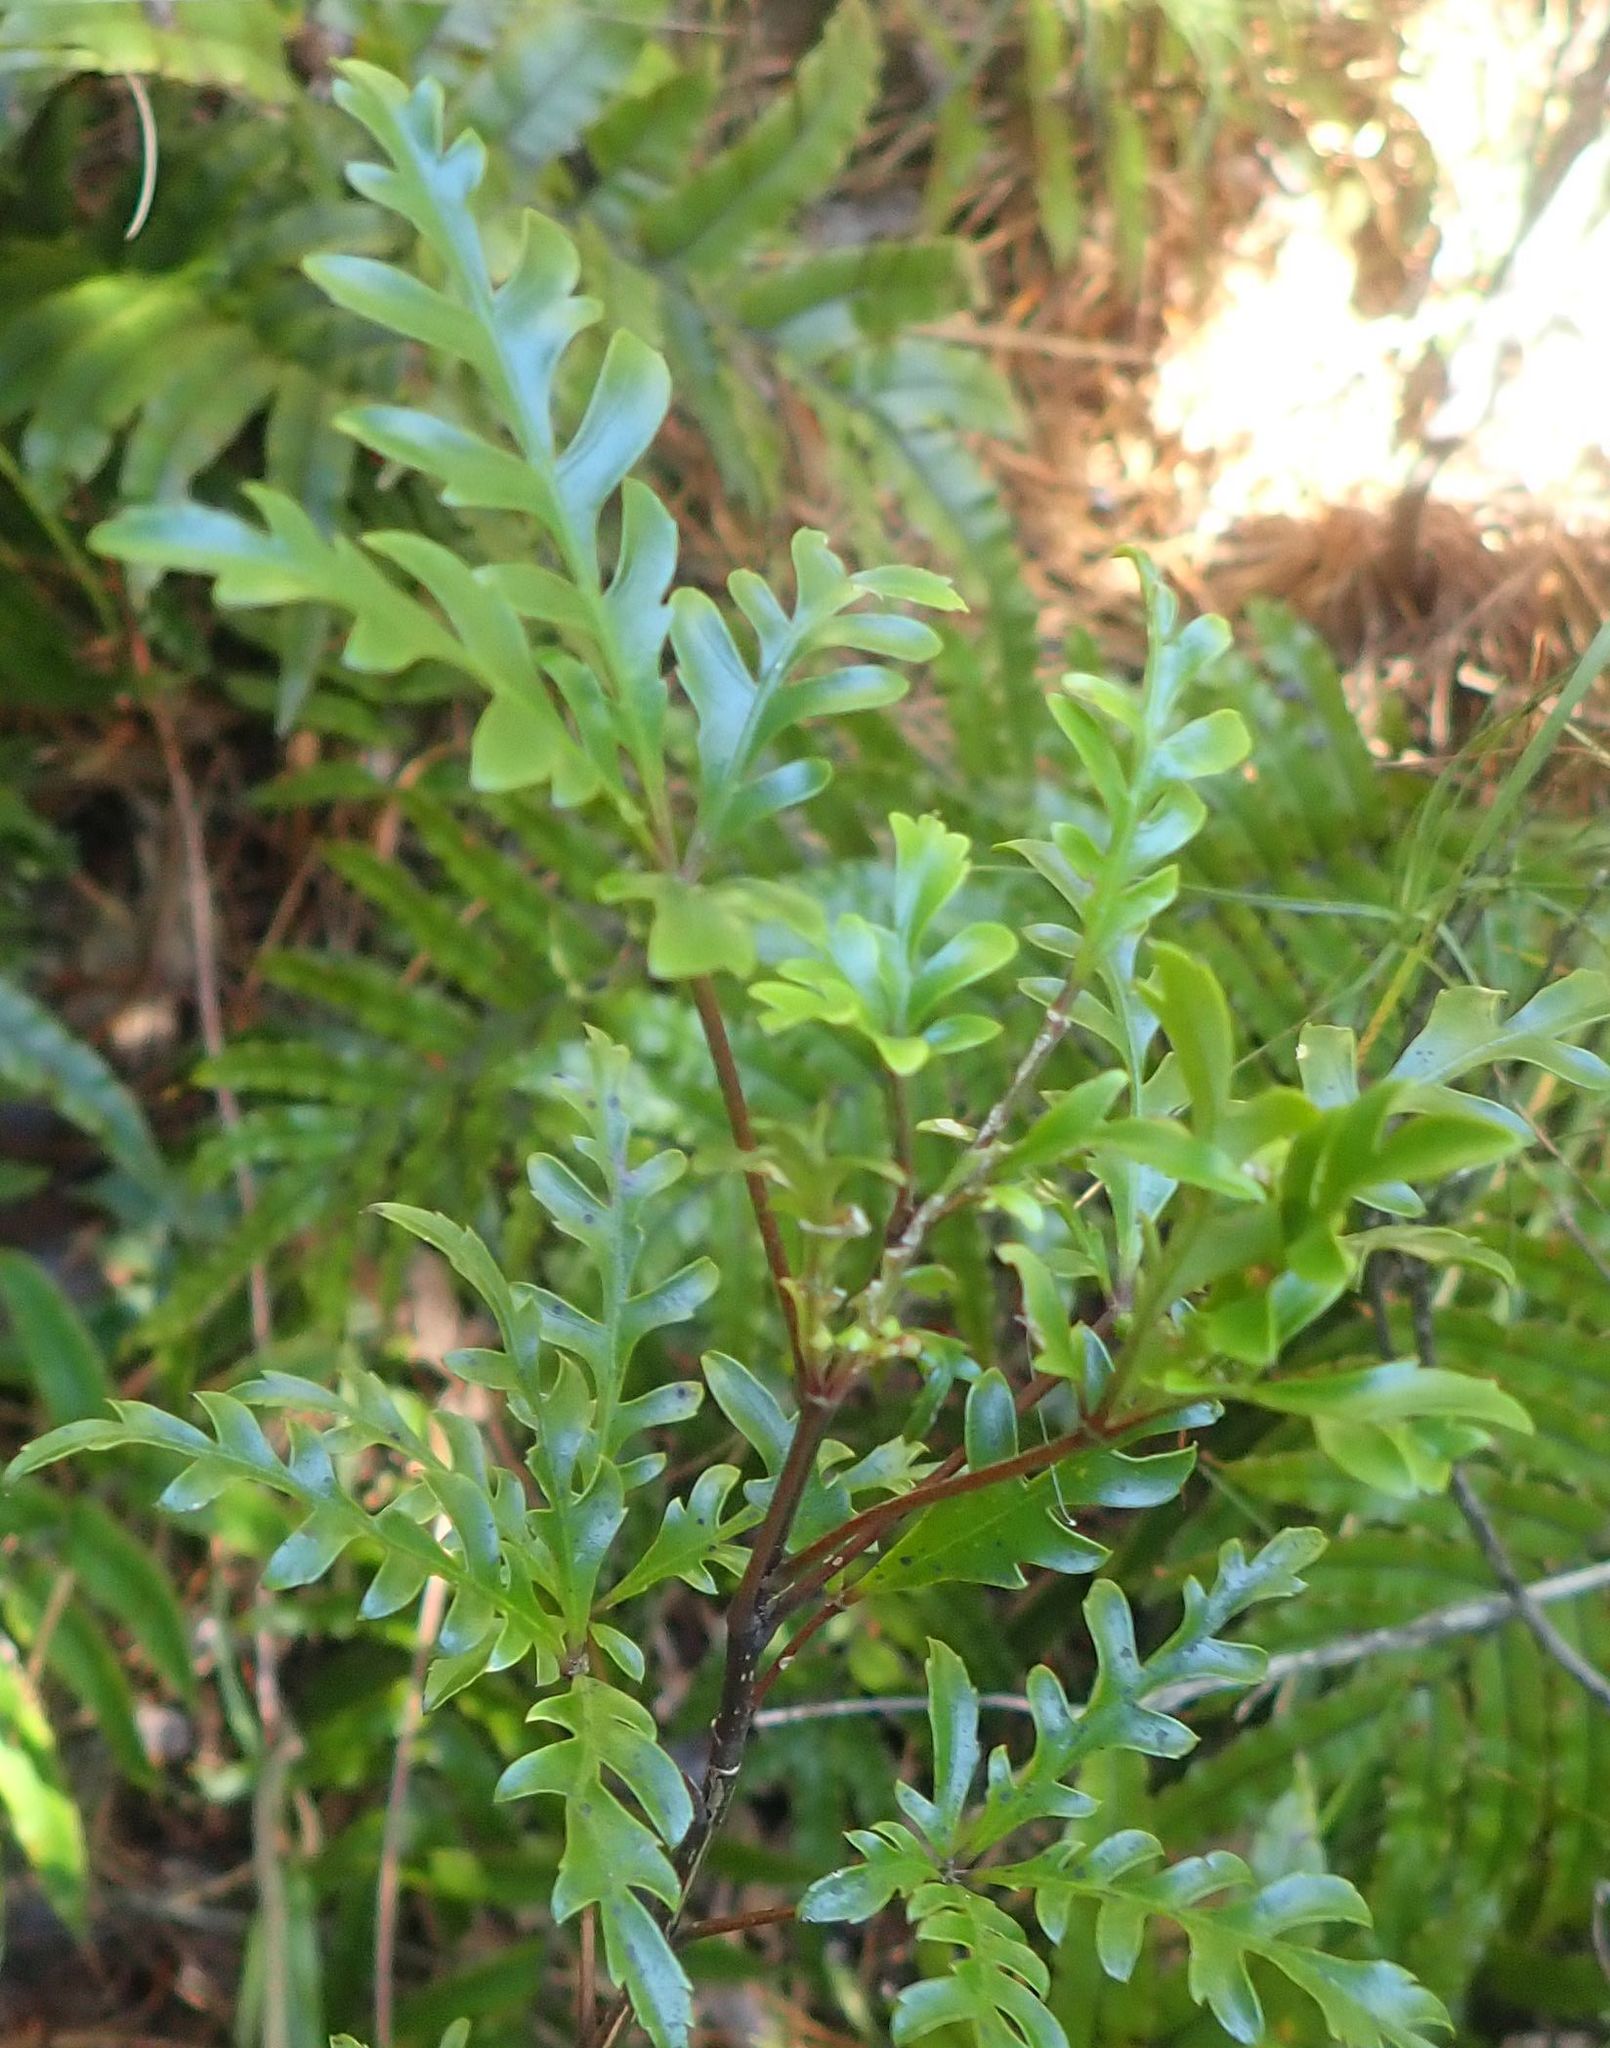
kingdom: Plantae
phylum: Tracheophyta
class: Magnoliopsida
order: Apiales
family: Araliaceae
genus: Raukaua
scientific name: Raukaua simplex
